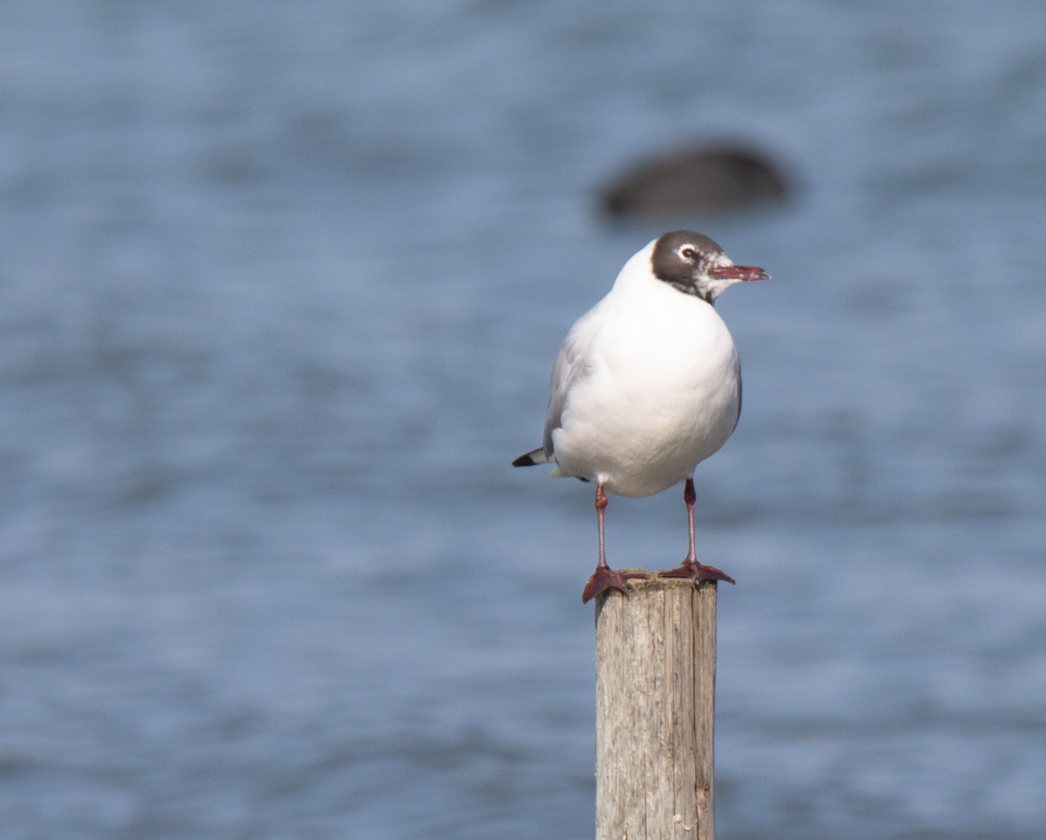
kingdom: Animalia
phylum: Chordata
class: Aves
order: Charadriiformes
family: Laridae
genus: Chroicocephalus
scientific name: Chroicocephalus ridibundus
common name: Black-headed gull
